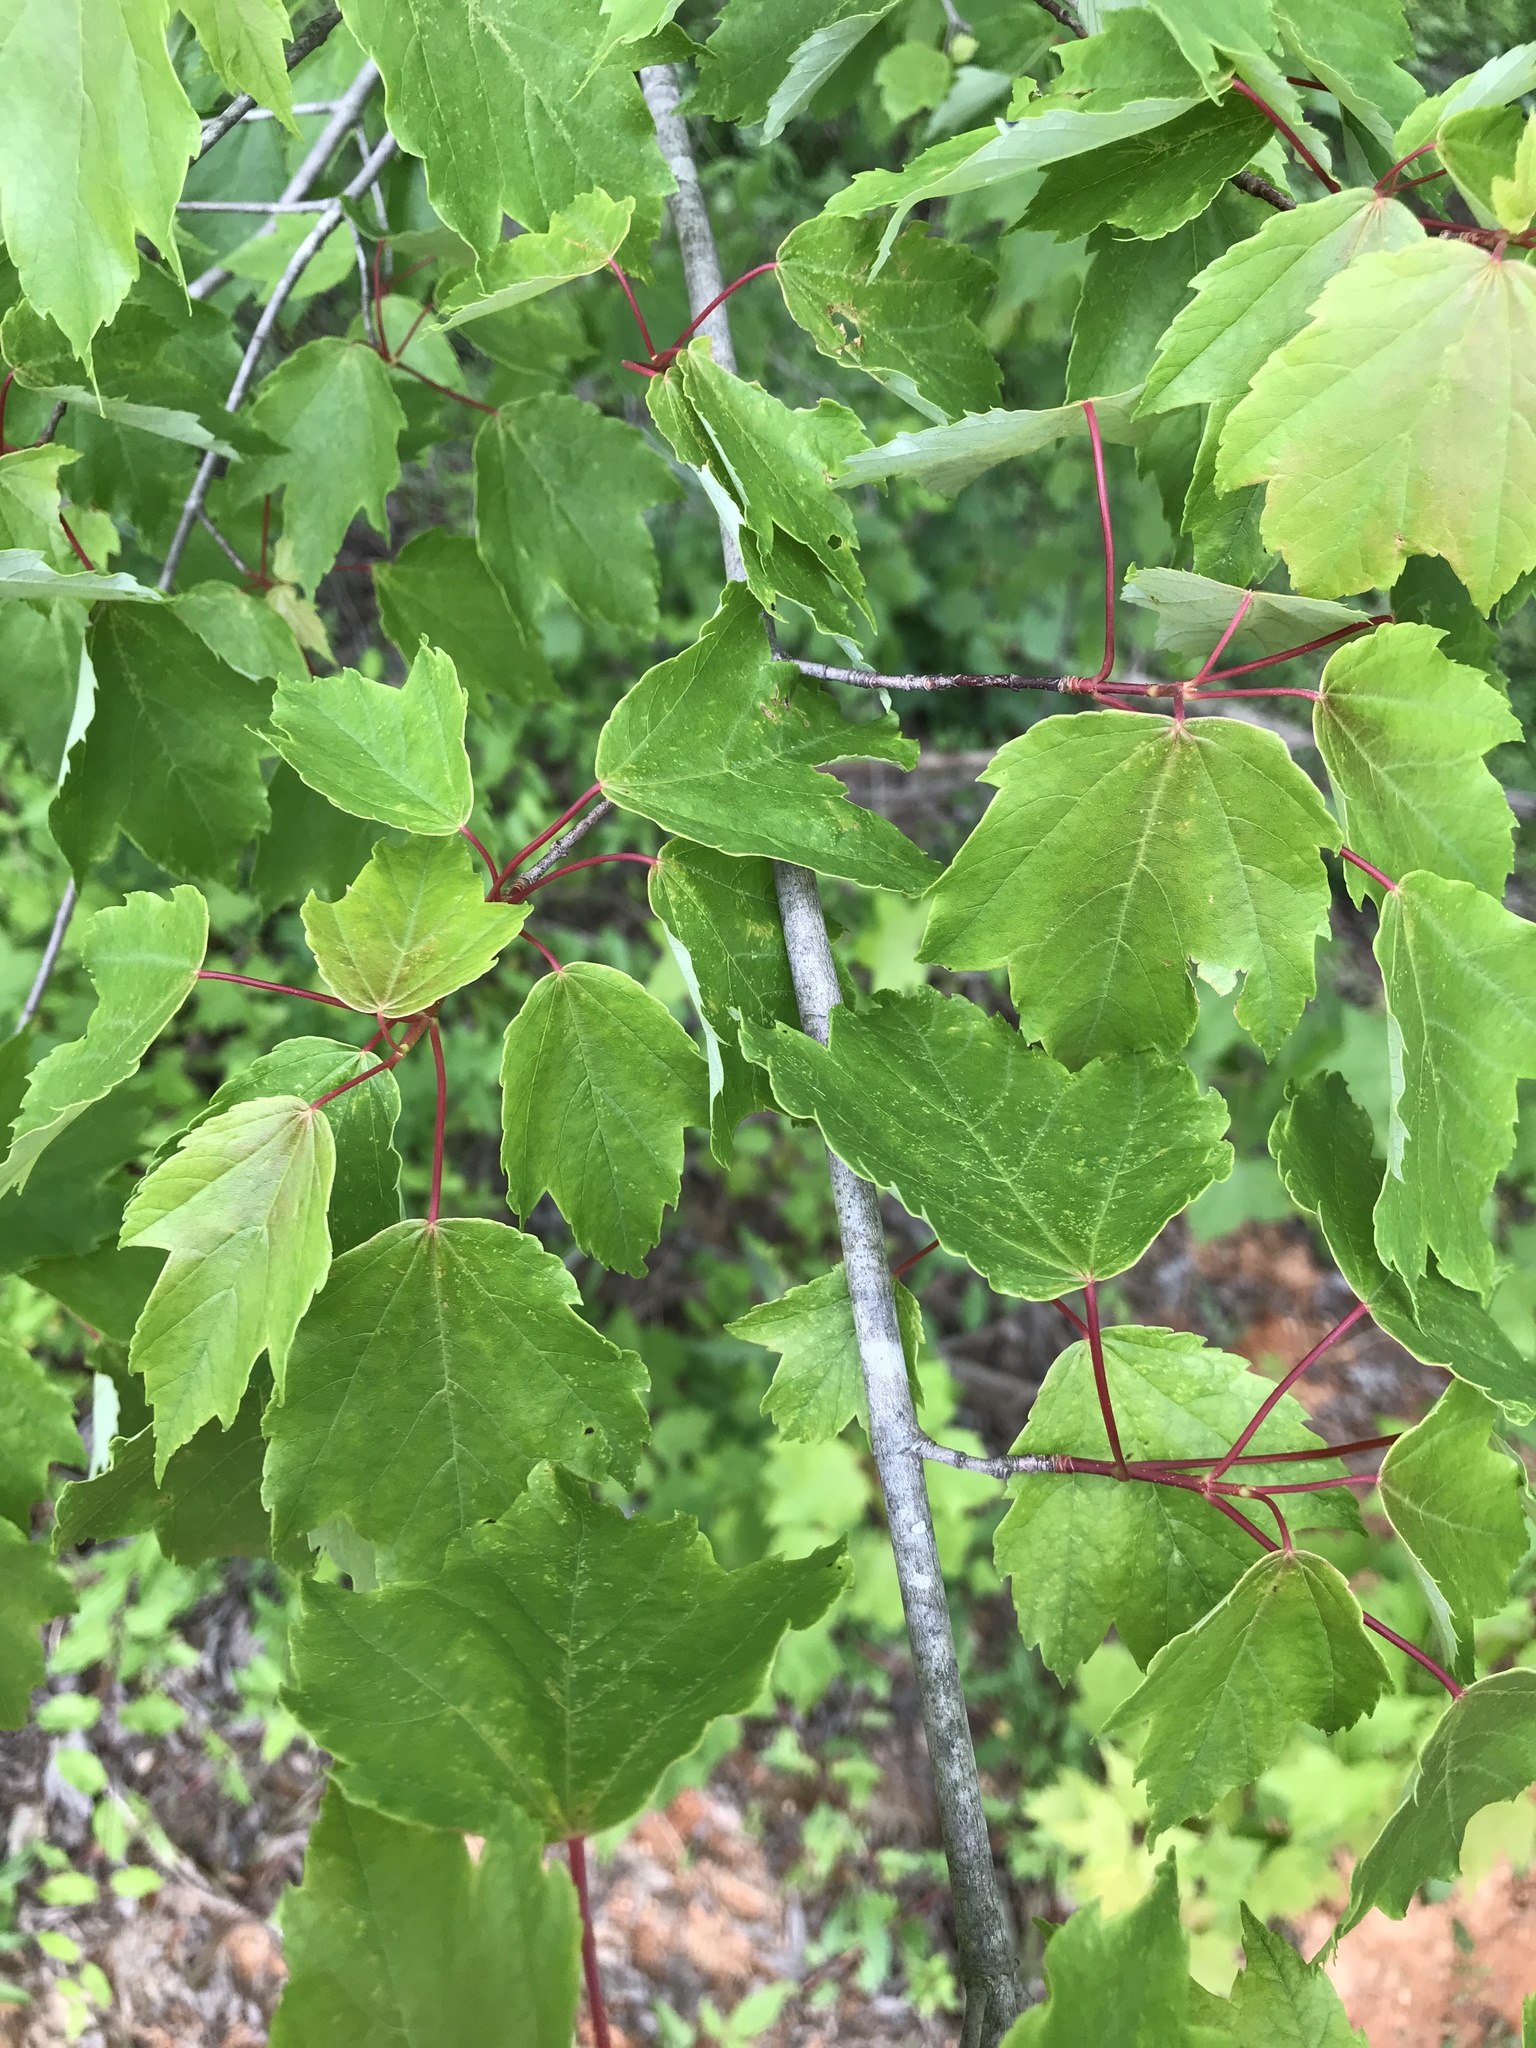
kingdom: Plantae
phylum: Tracheophyta
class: Magnoliopsida
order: Sapindales
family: Sapindaceae
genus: Acer
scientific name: Acer rubrum
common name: Red maple
